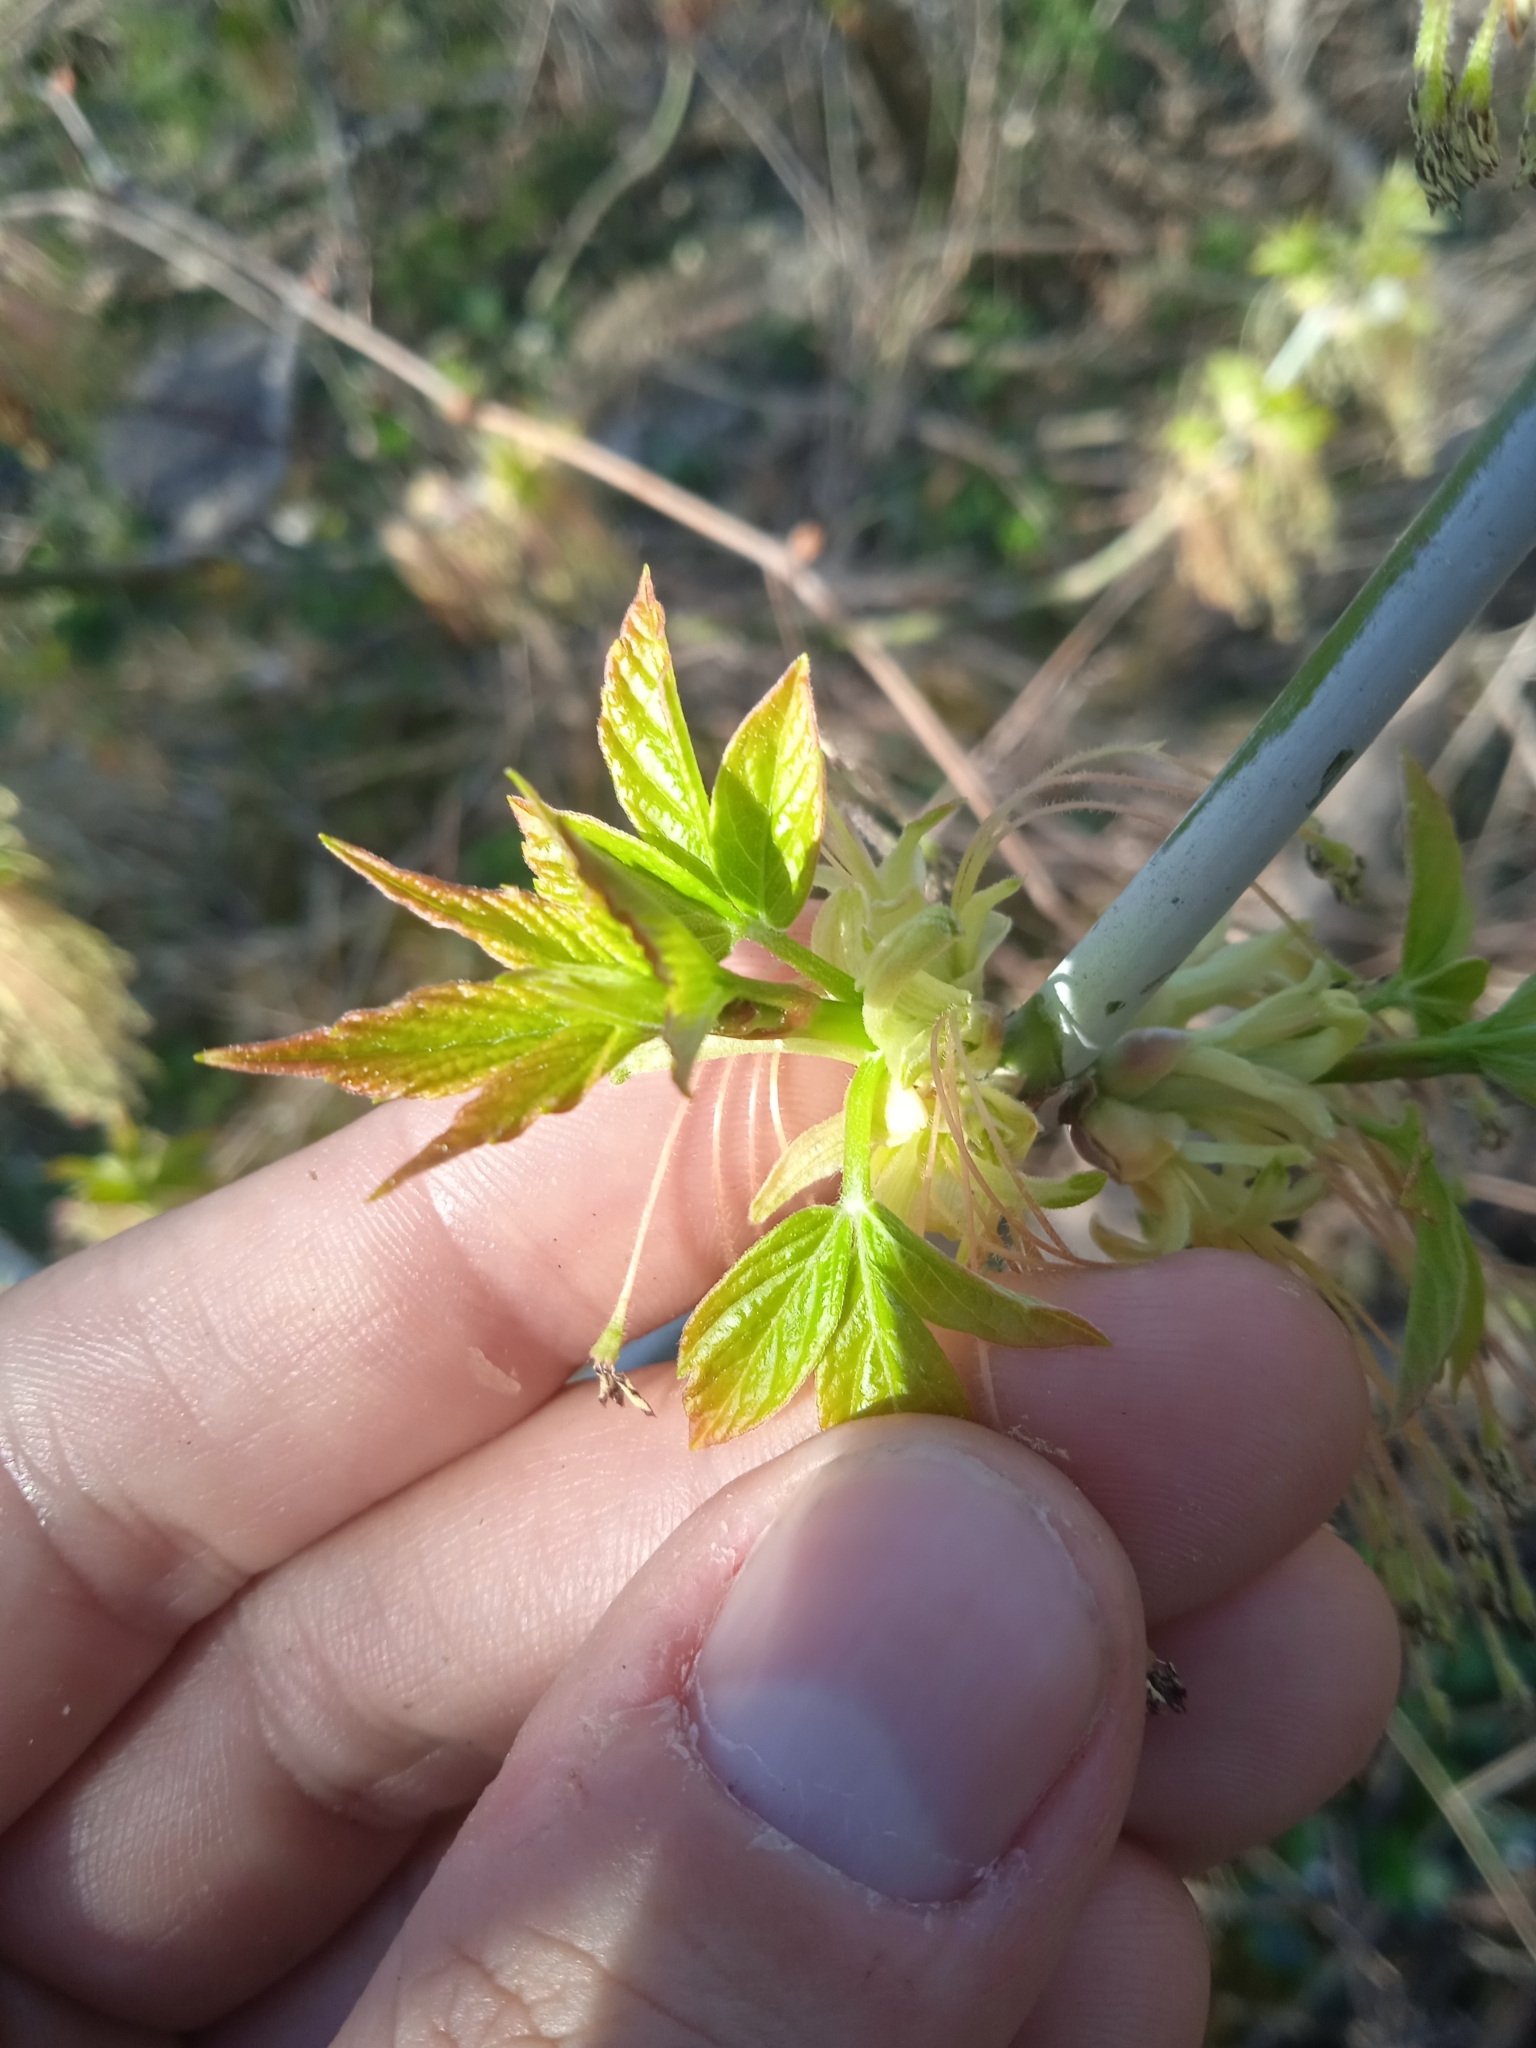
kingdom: Plantae
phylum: Tracheophyta
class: Magnoliopsida
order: Sapindales
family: Sapindaceae
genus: Acer
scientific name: Acer negundo
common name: Ashleaf maple
